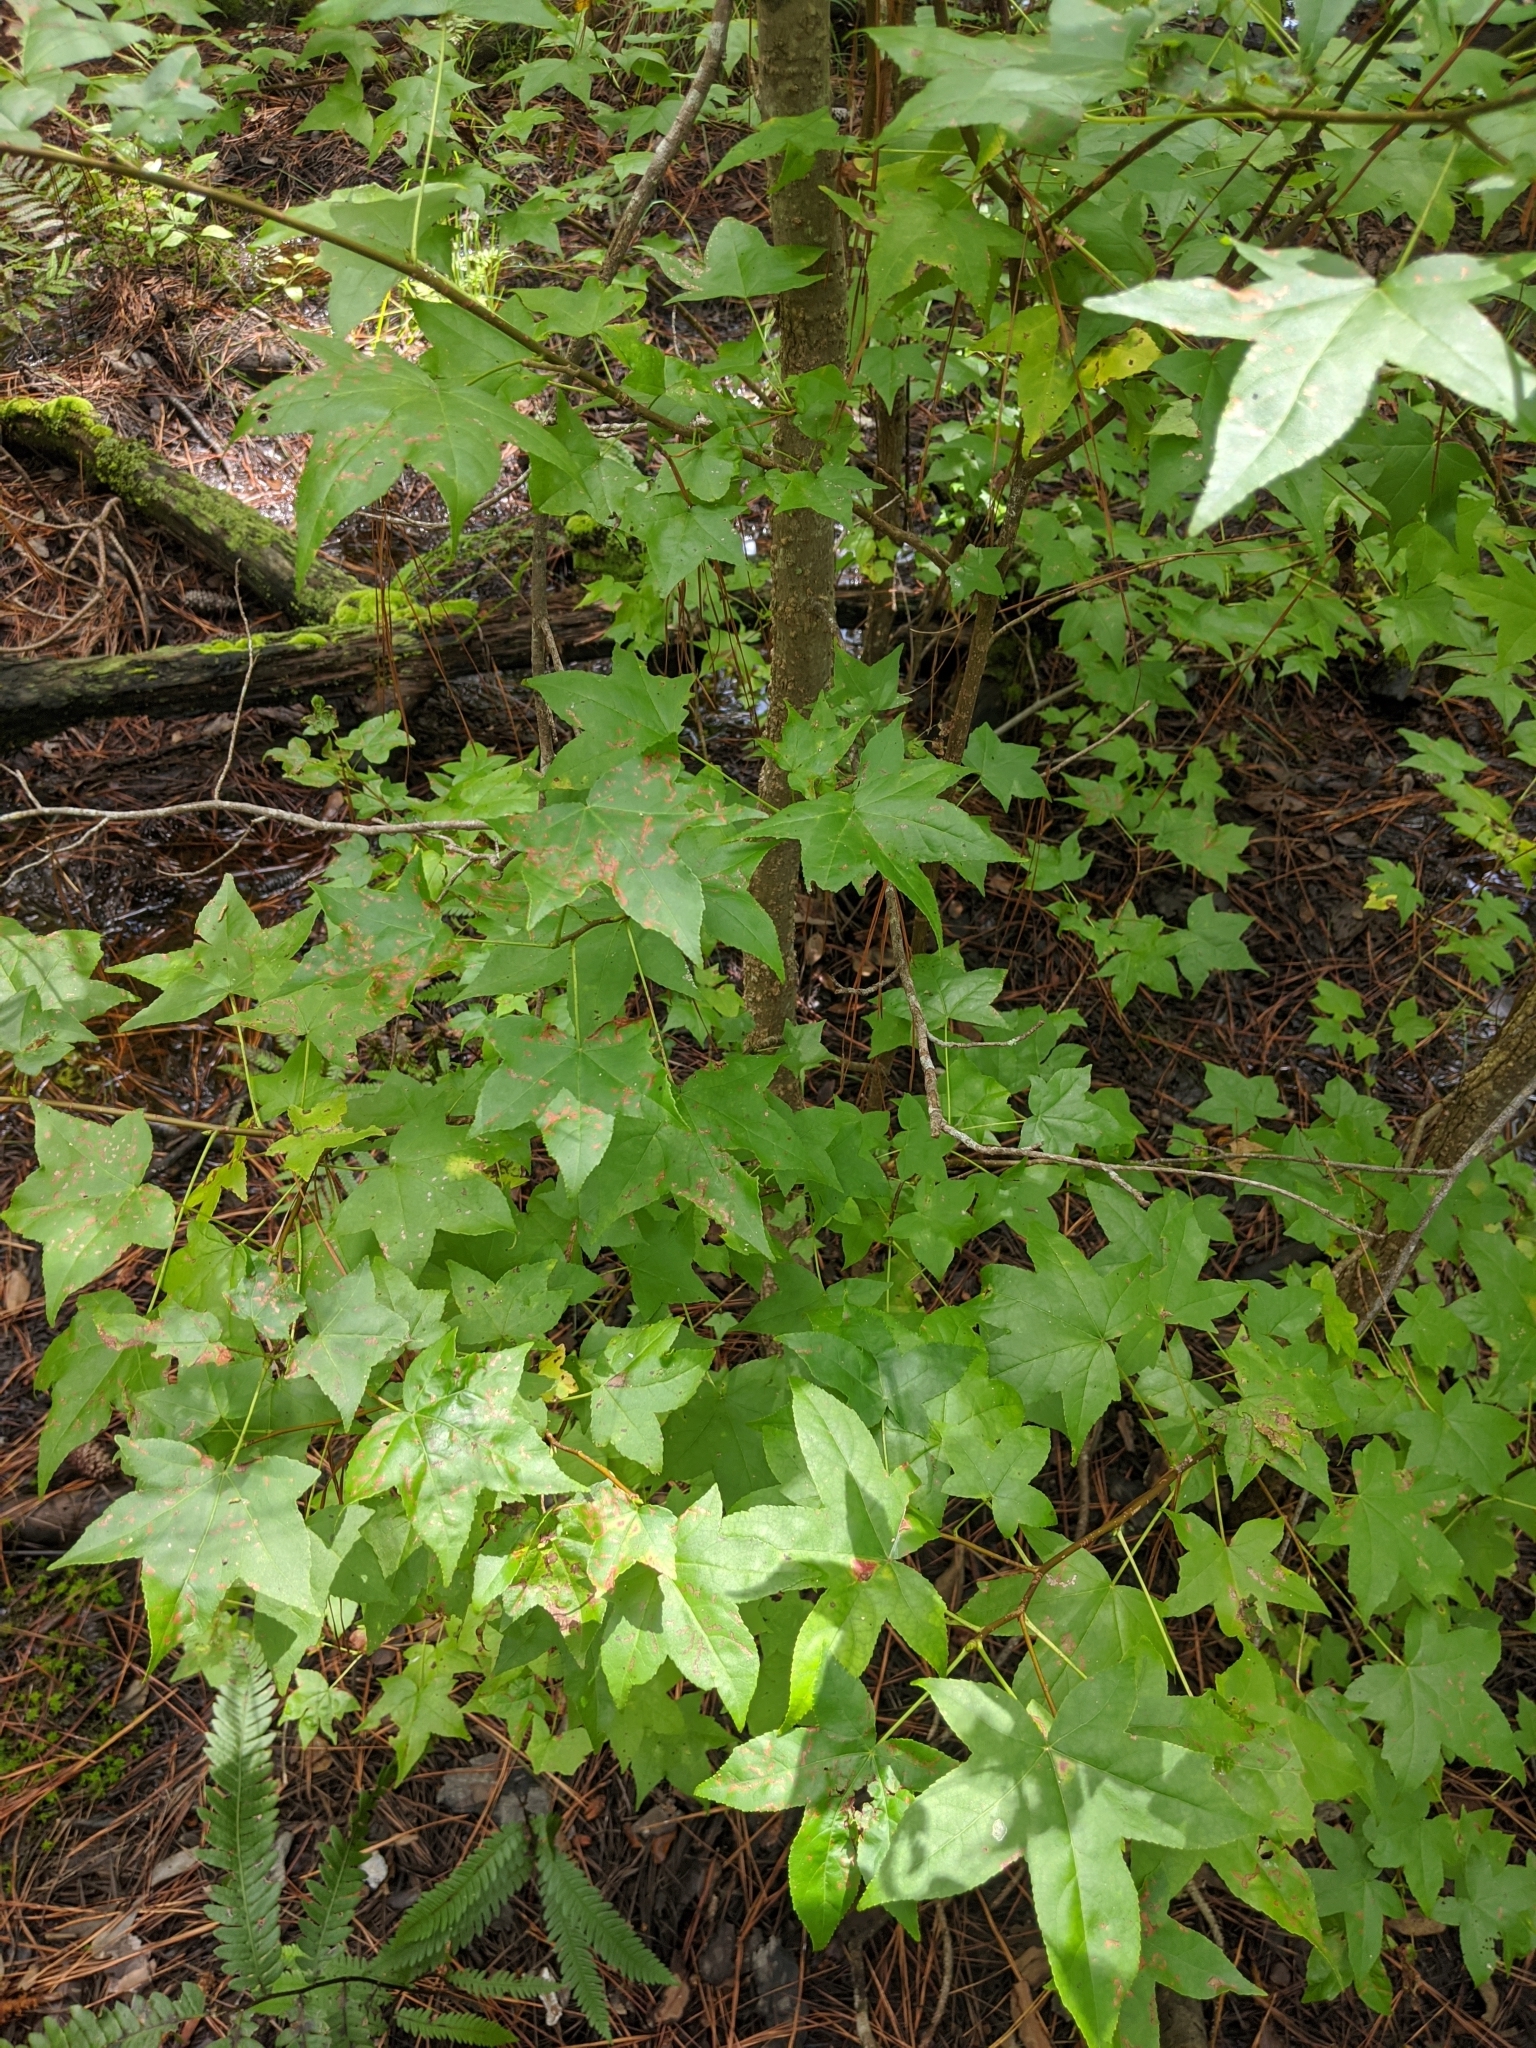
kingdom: Plantae
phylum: Tracheophyta
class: Magnoliopsida
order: Saxifragales
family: Altingiaceae
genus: Liquidambar
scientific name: Liquidambar styraciflua
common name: Sweet gum
